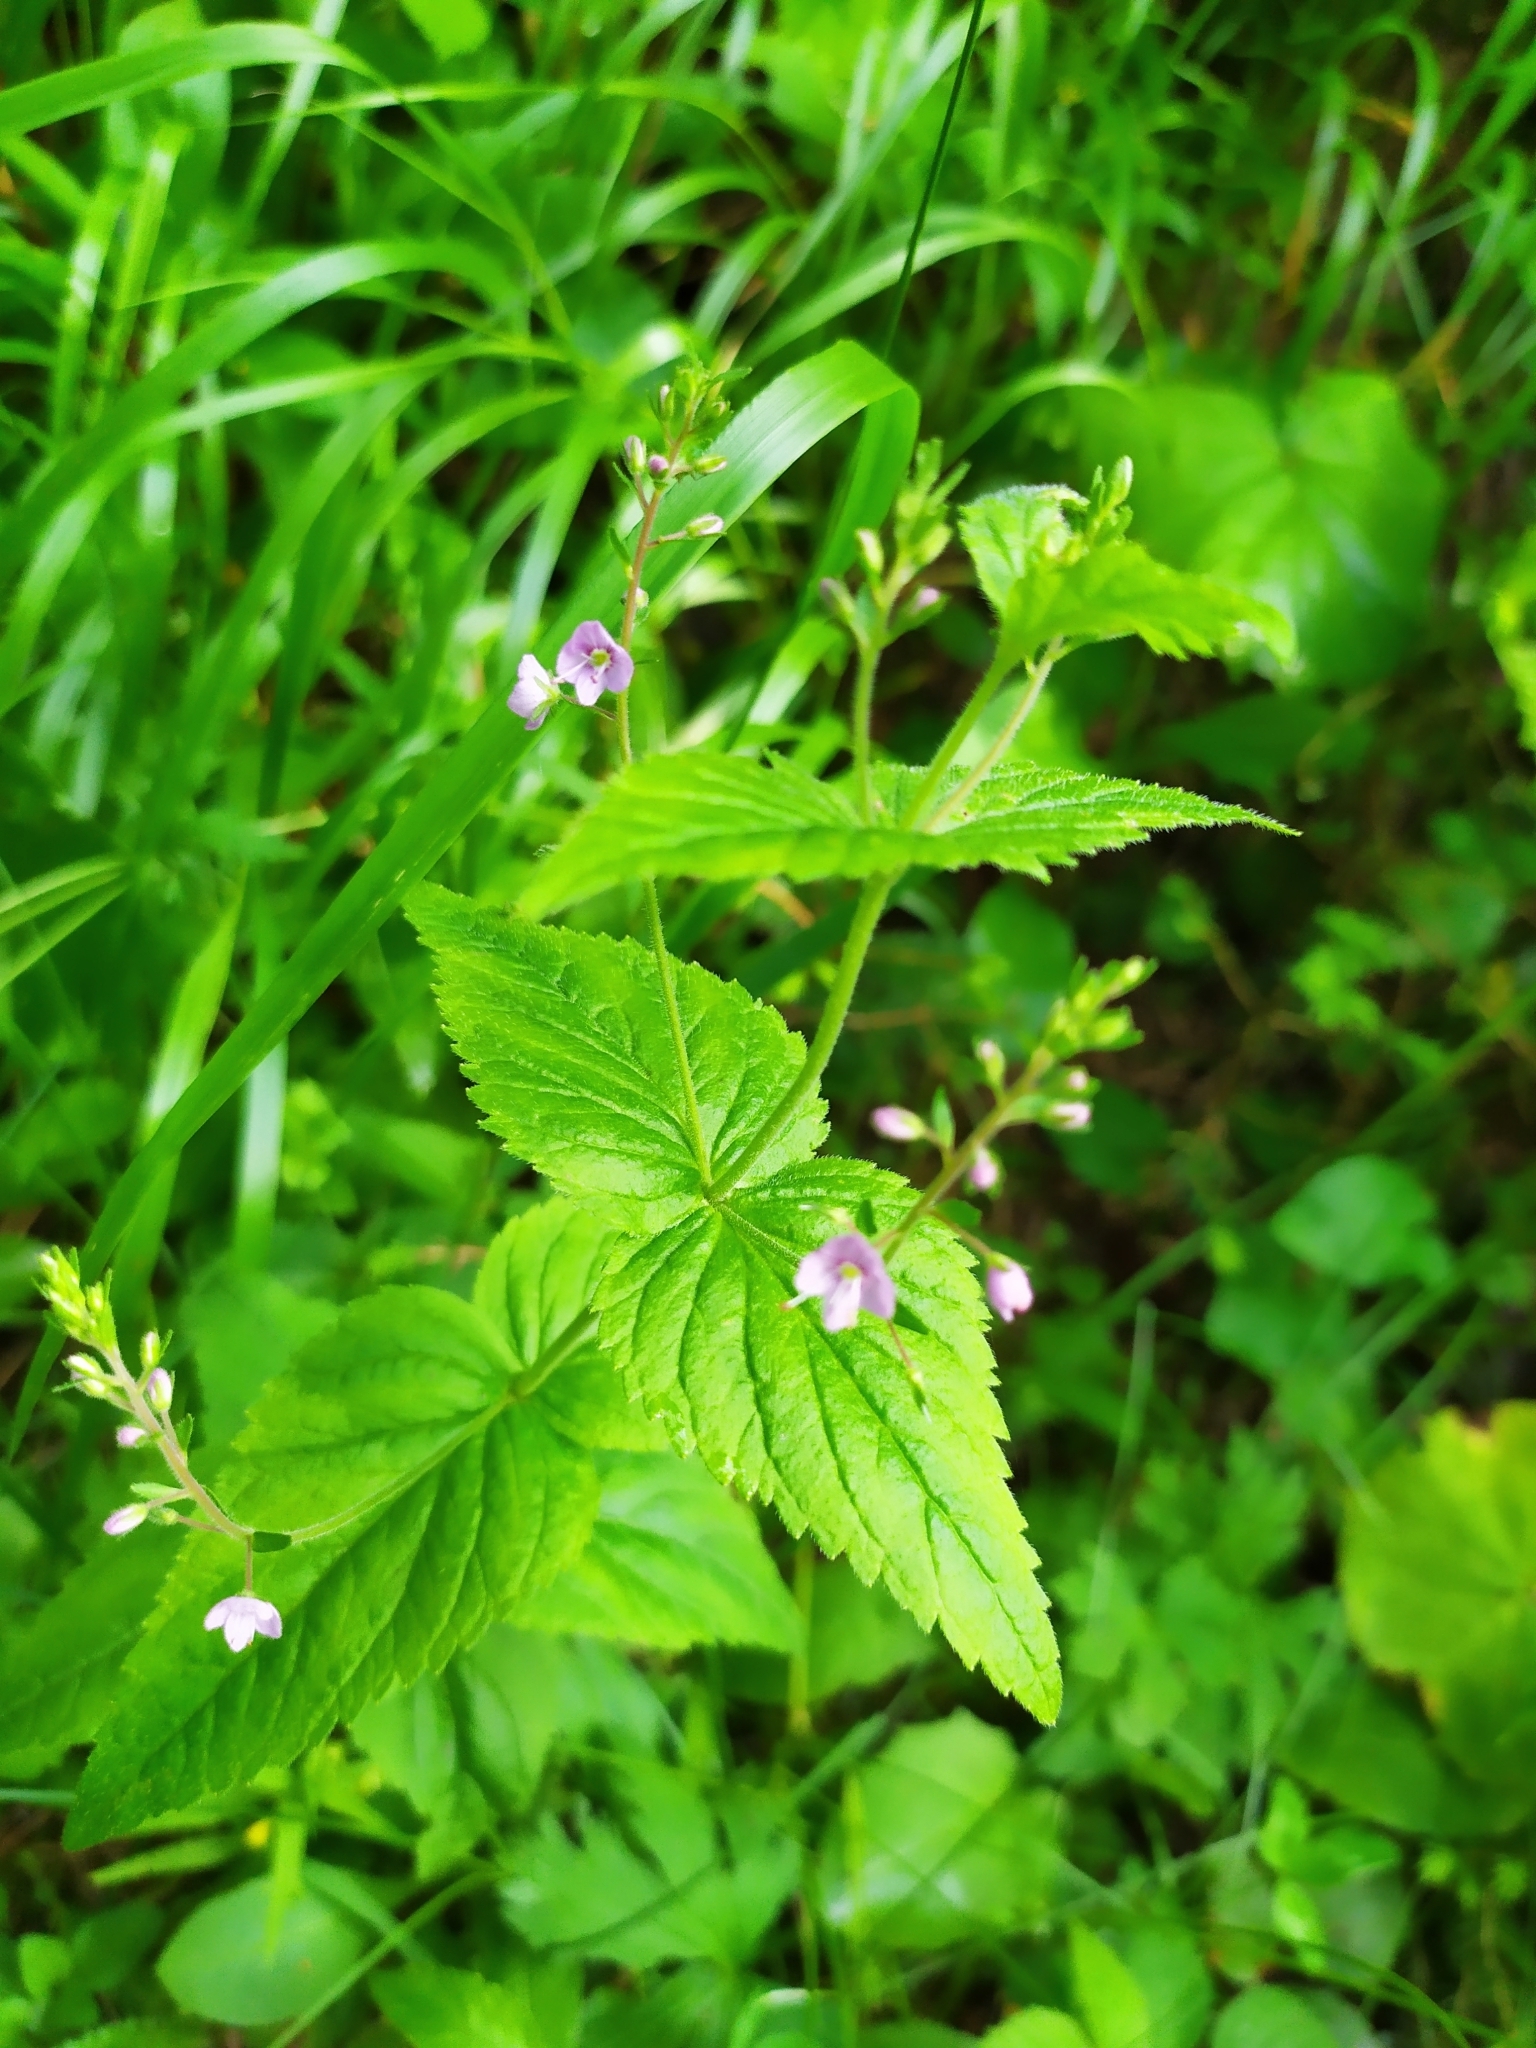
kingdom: Plantae
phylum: Tracheophyta
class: Magnoliopsida
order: Lamiales
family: Plantaginaceae
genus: Veronica
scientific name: Veronica urticifolia
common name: Nettle-leaf speedwell
